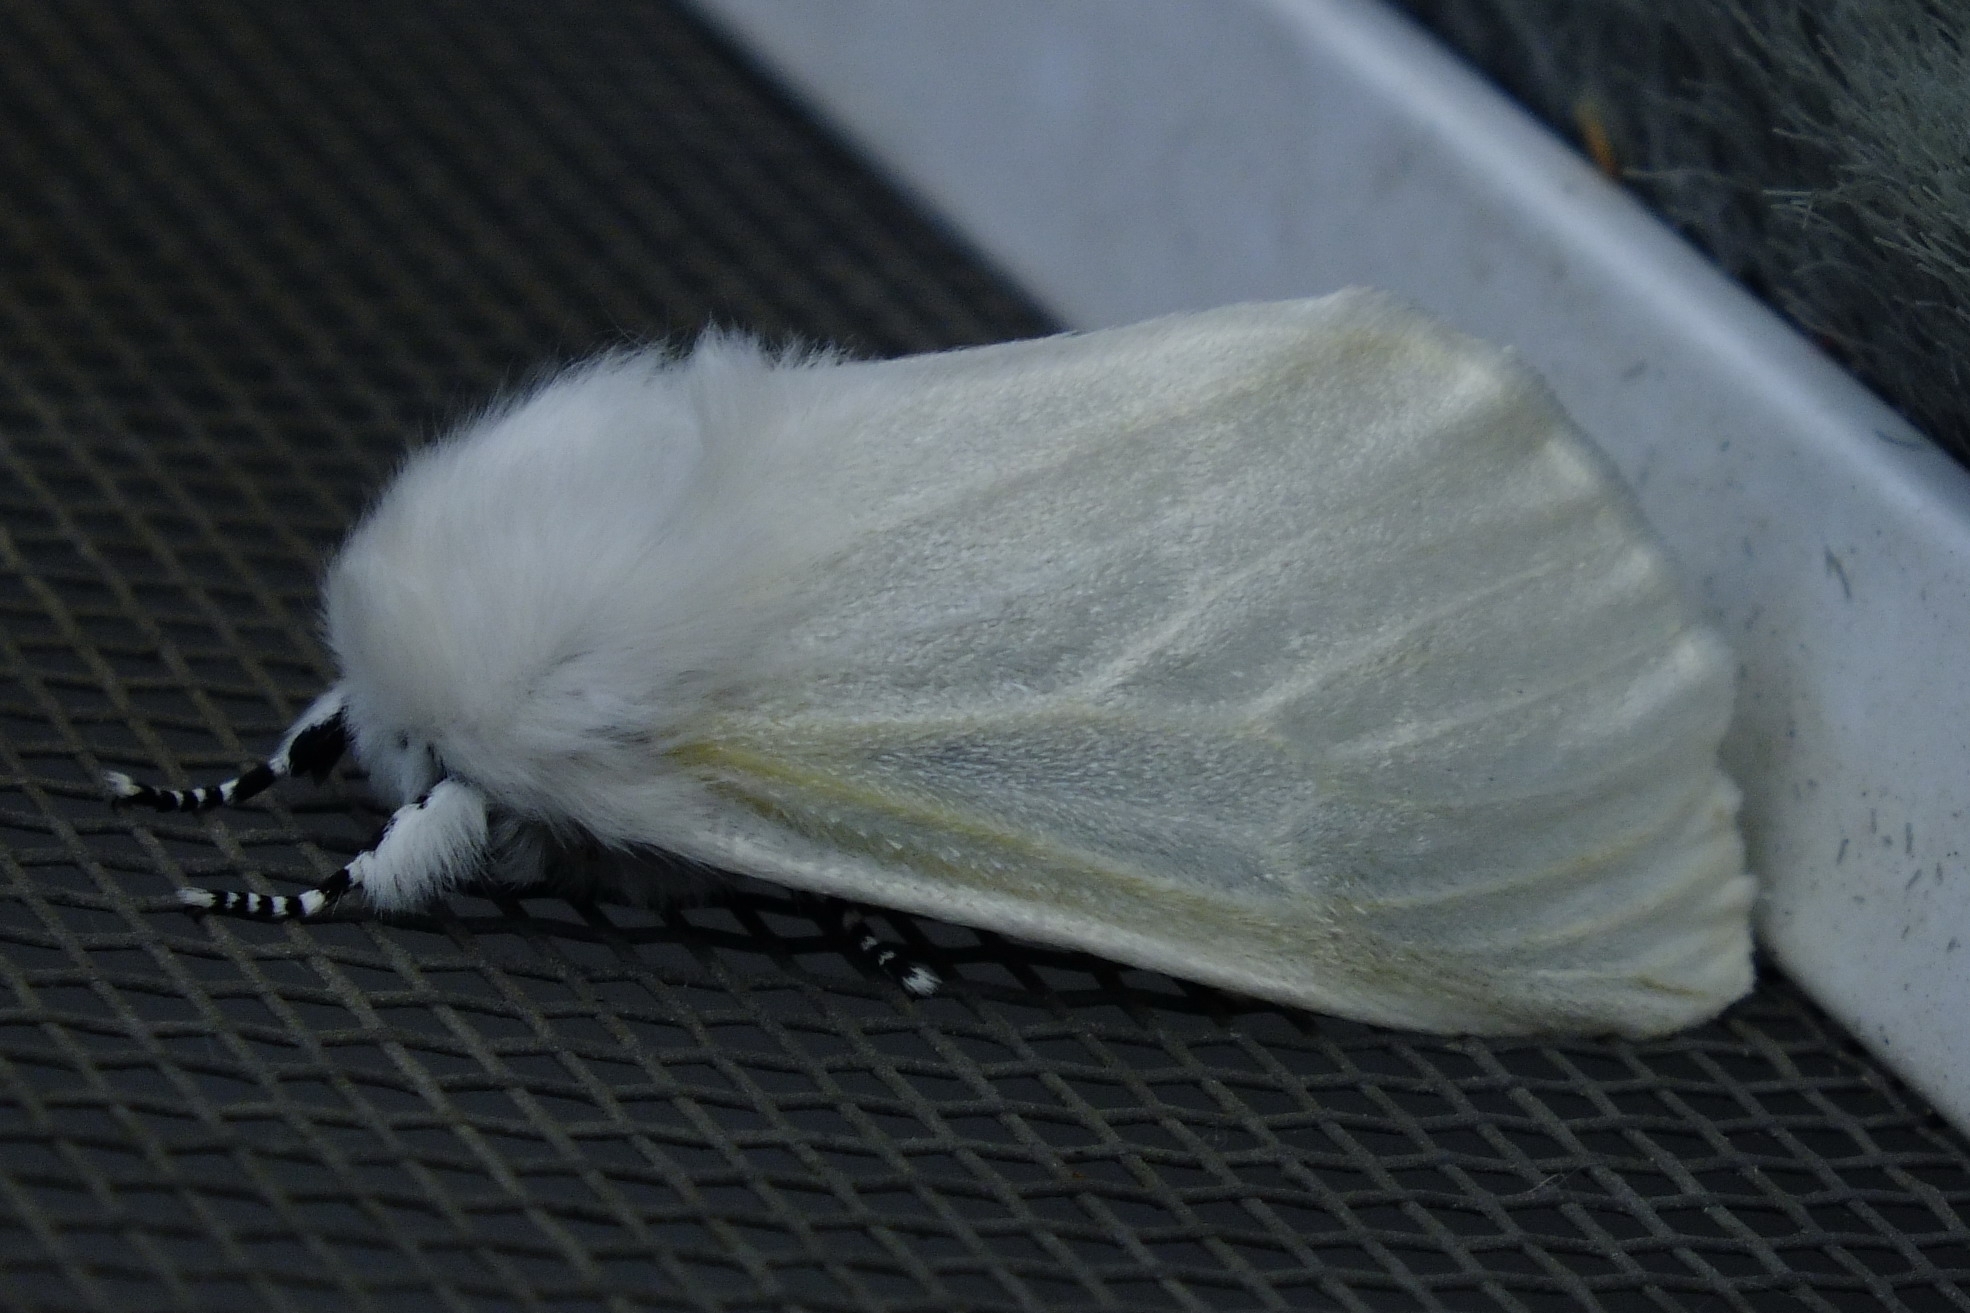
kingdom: Animalia
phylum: Arthropoda
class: Insecta
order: Lepidoptera
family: Erebidae
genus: Leucoma
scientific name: Leucoma salicis
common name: White satin moth
